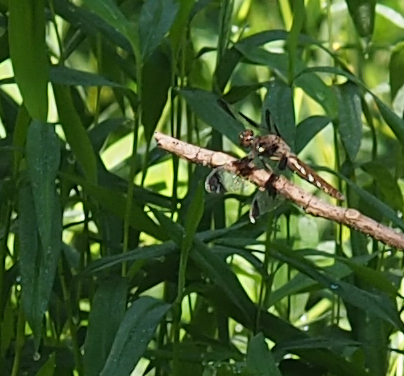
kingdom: Animalia
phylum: Arthropoda
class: Insecta
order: Odonata
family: Libellulidae
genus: Plathemis
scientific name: Plathemis lydia
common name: Common whitetail
